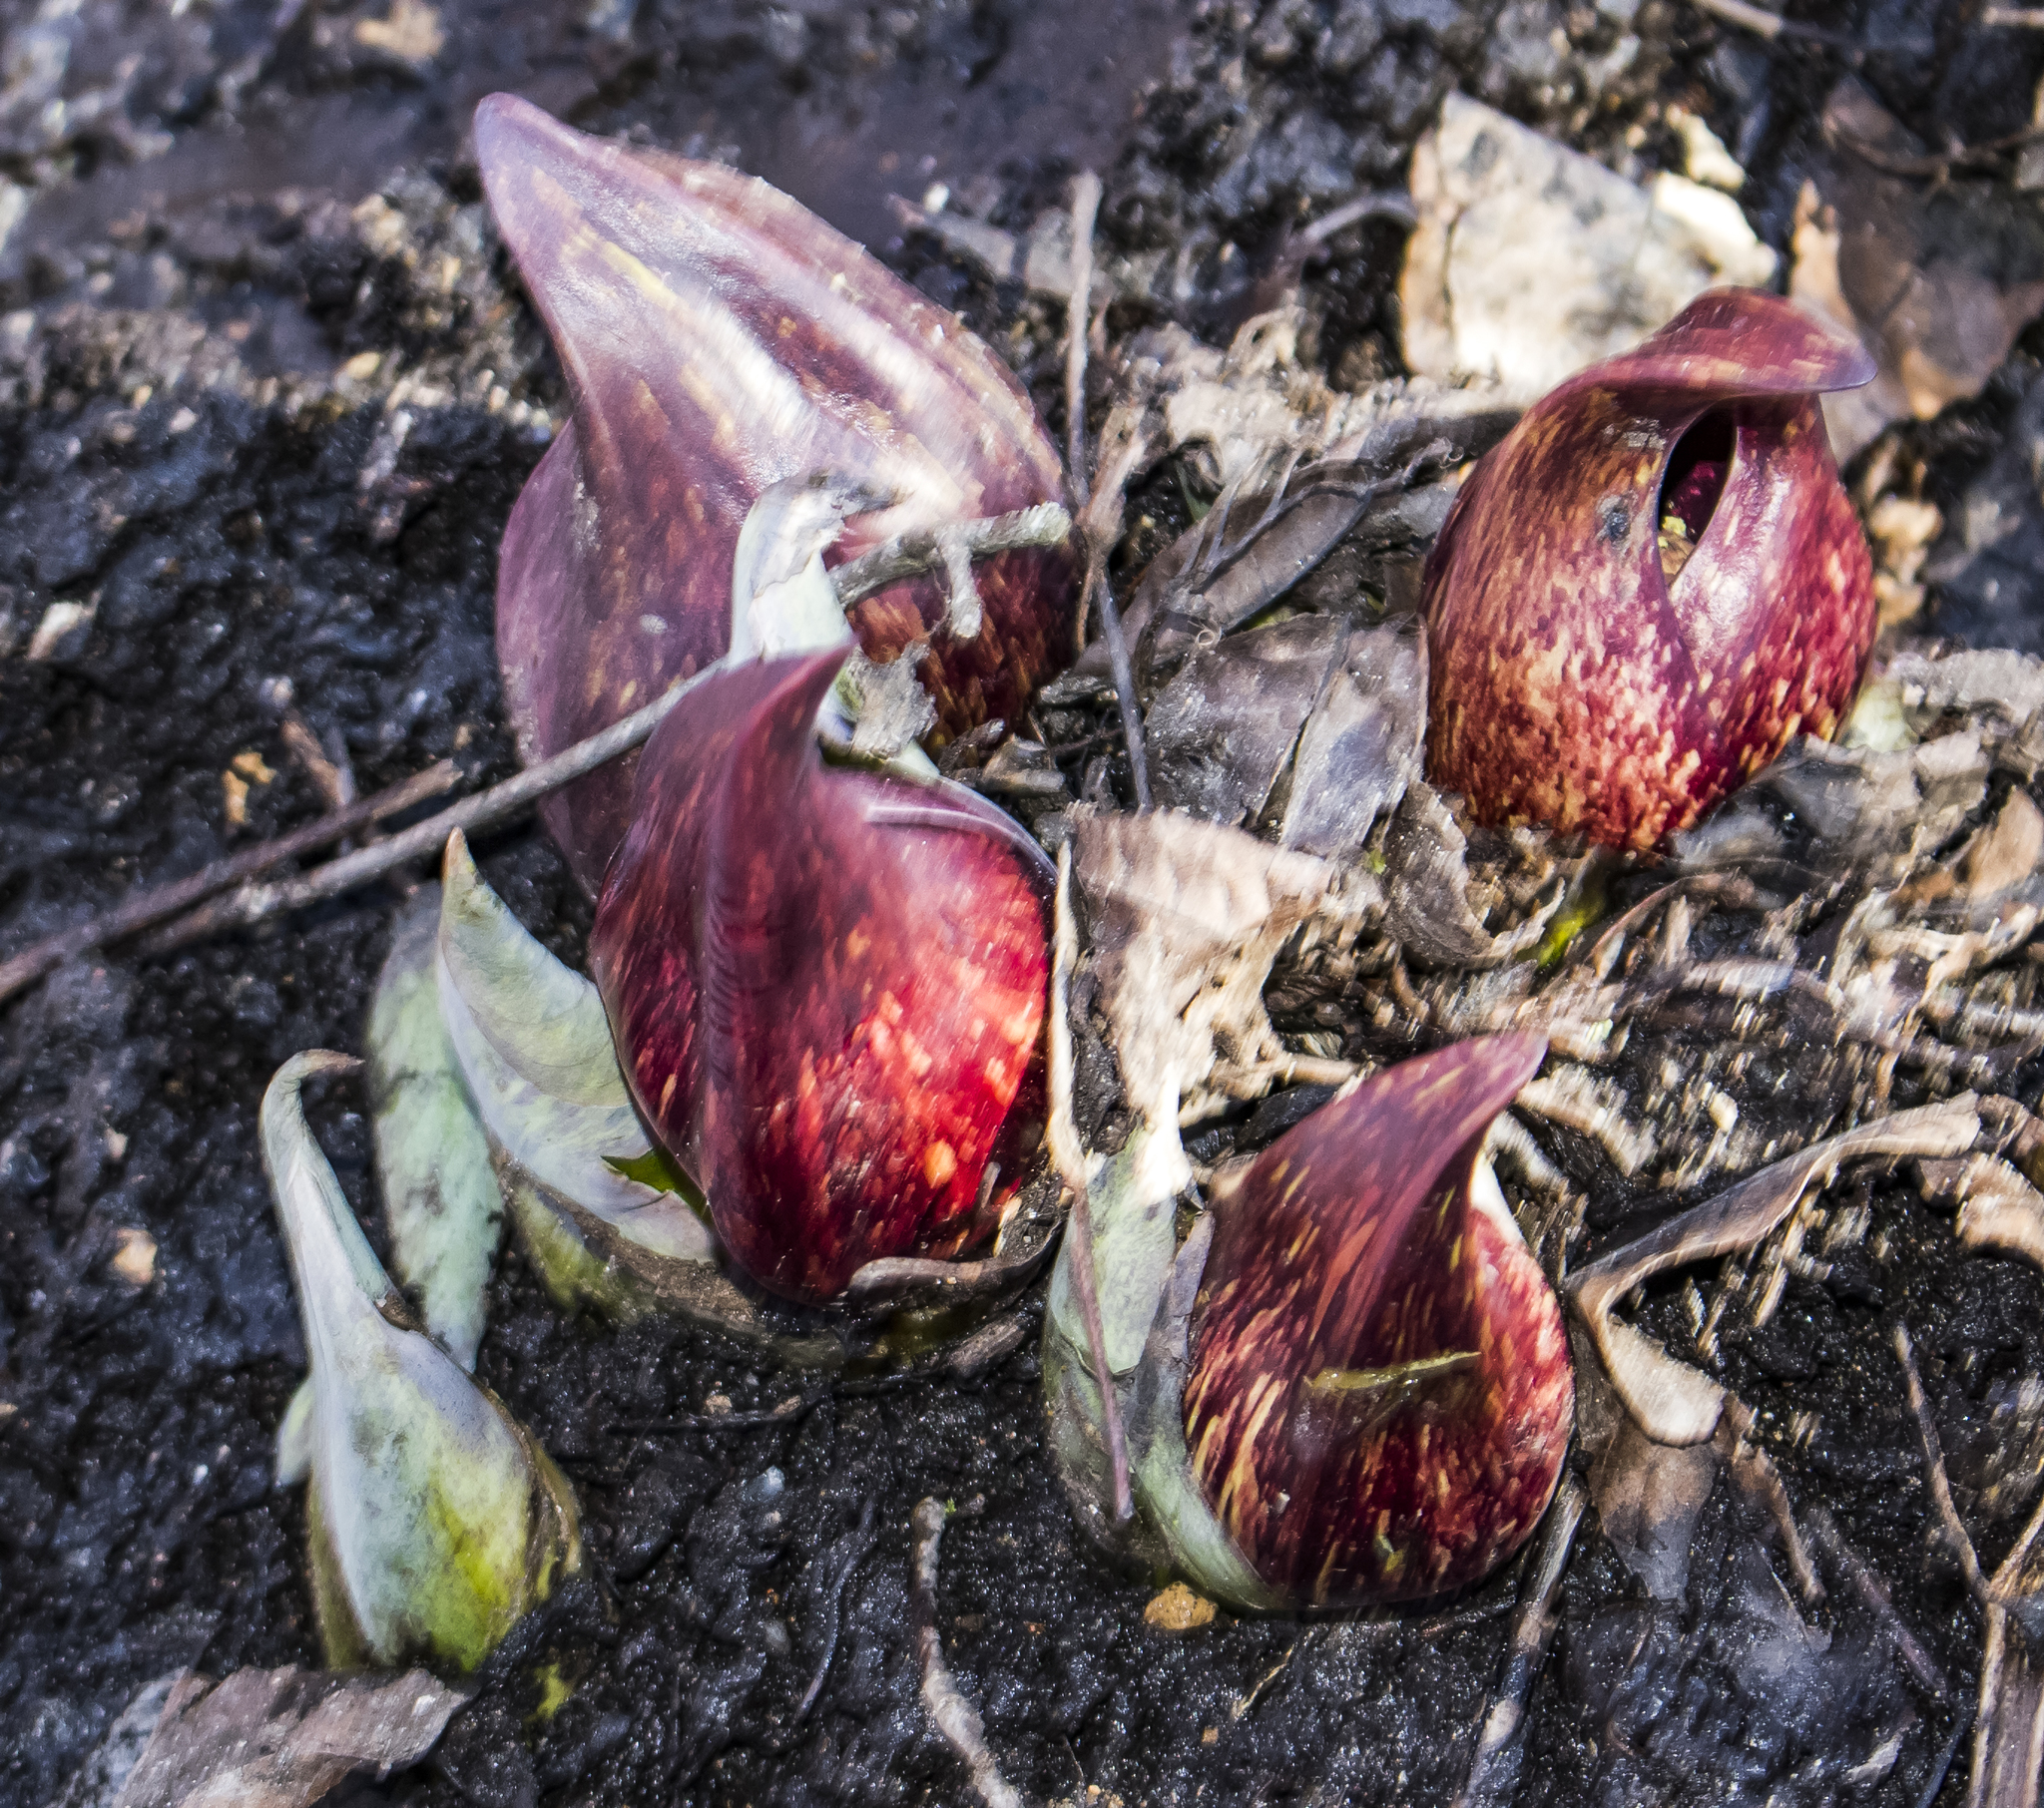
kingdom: Plantae
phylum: Tracheophyta
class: Liliopsida
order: Alismatales
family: Araceae
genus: Symplocarpus
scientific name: Symplocarpus foetidus
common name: Eastern skunk cabbage
